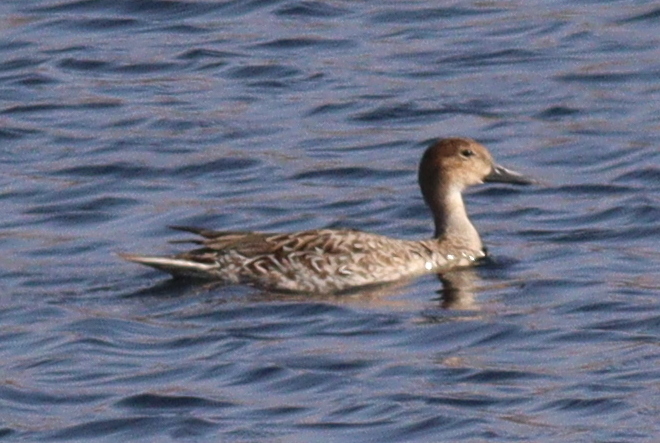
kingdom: Animalia
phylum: Chordata
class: Aves
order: Anseriformes
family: Anatidae
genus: Anas
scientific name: Anas acuta
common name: Northern pintail
